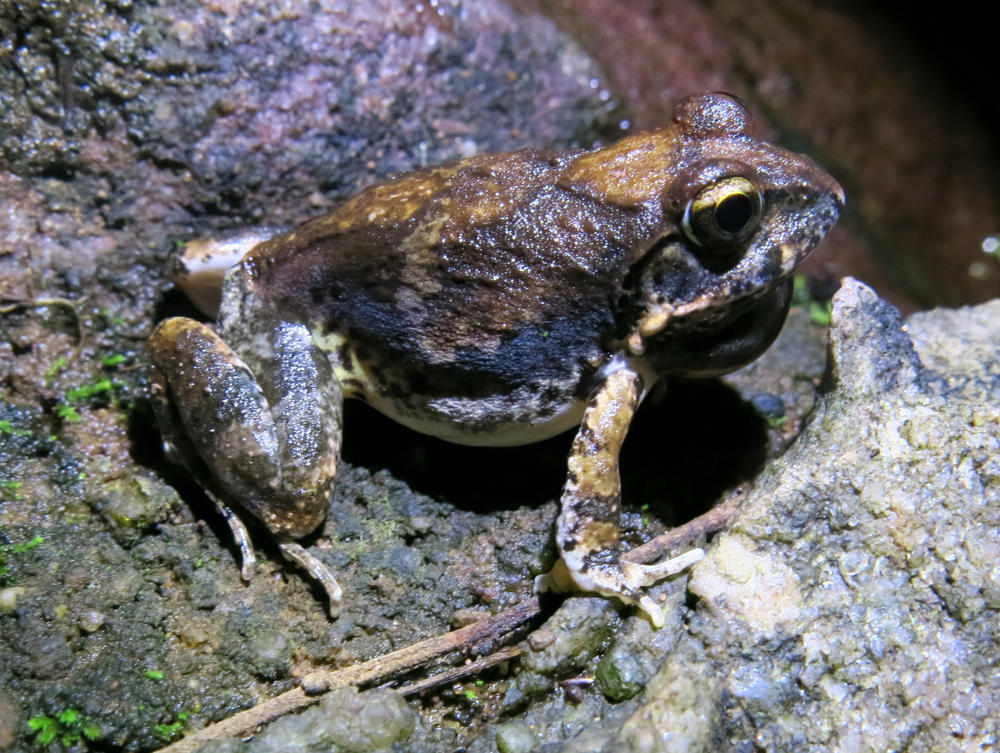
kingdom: Animalia
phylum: Chordata
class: Amphibia
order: Anura
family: Pyxicephalidae
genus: Tomopterna
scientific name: Tomopterna natalensis
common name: Natal sand frog
